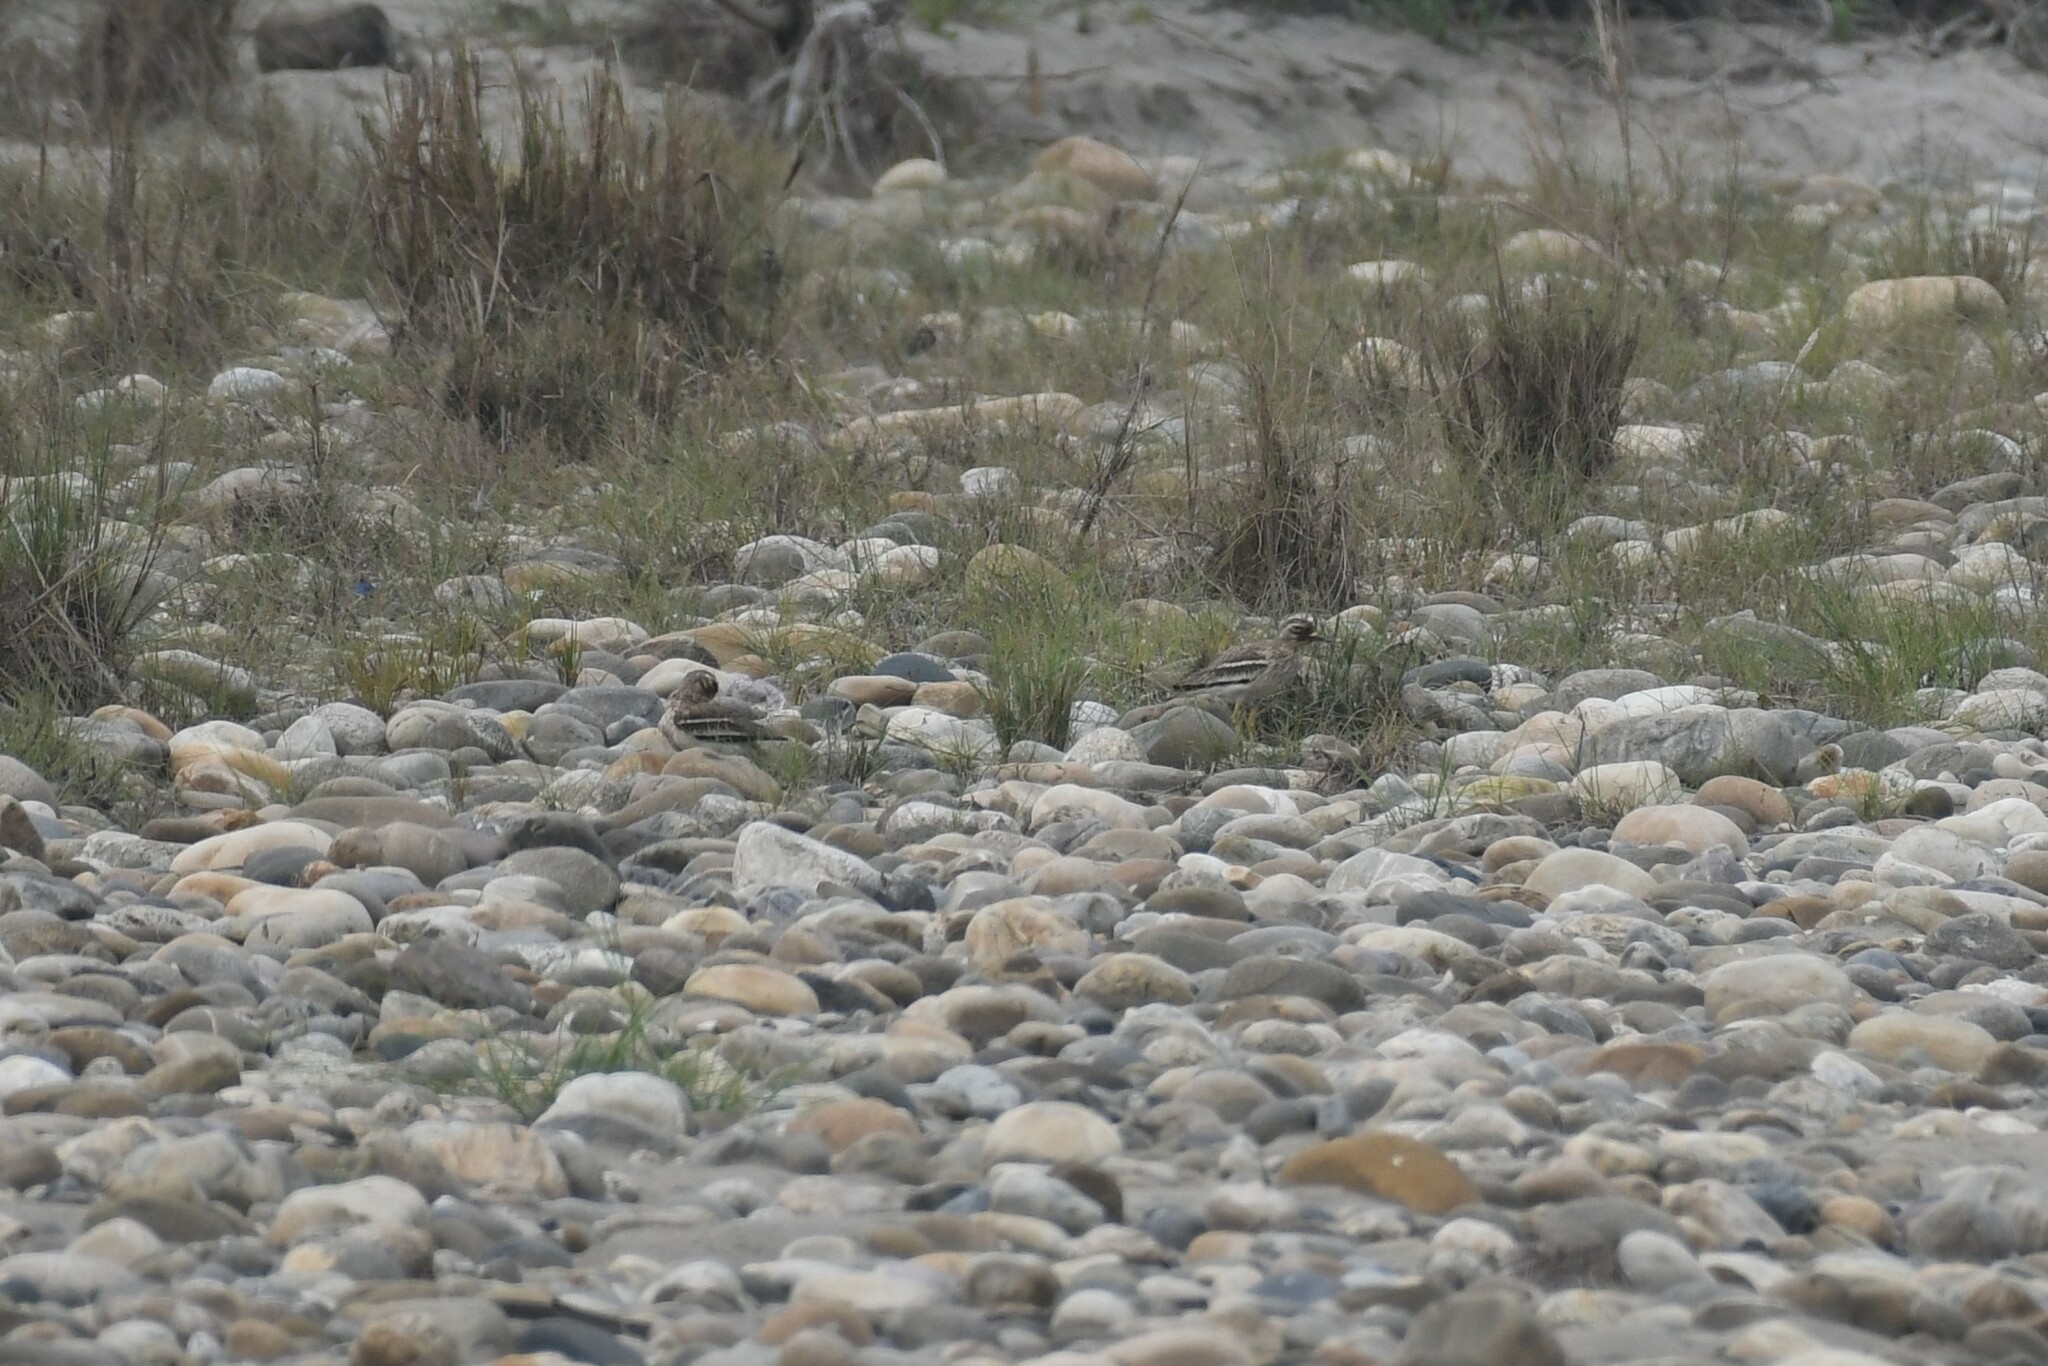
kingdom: Animalia
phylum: Chordata
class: Aves
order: Charadriiformes
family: Burhinidae
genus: Burhinus
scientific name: Burhinus indicus
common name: Indian thick-knee
